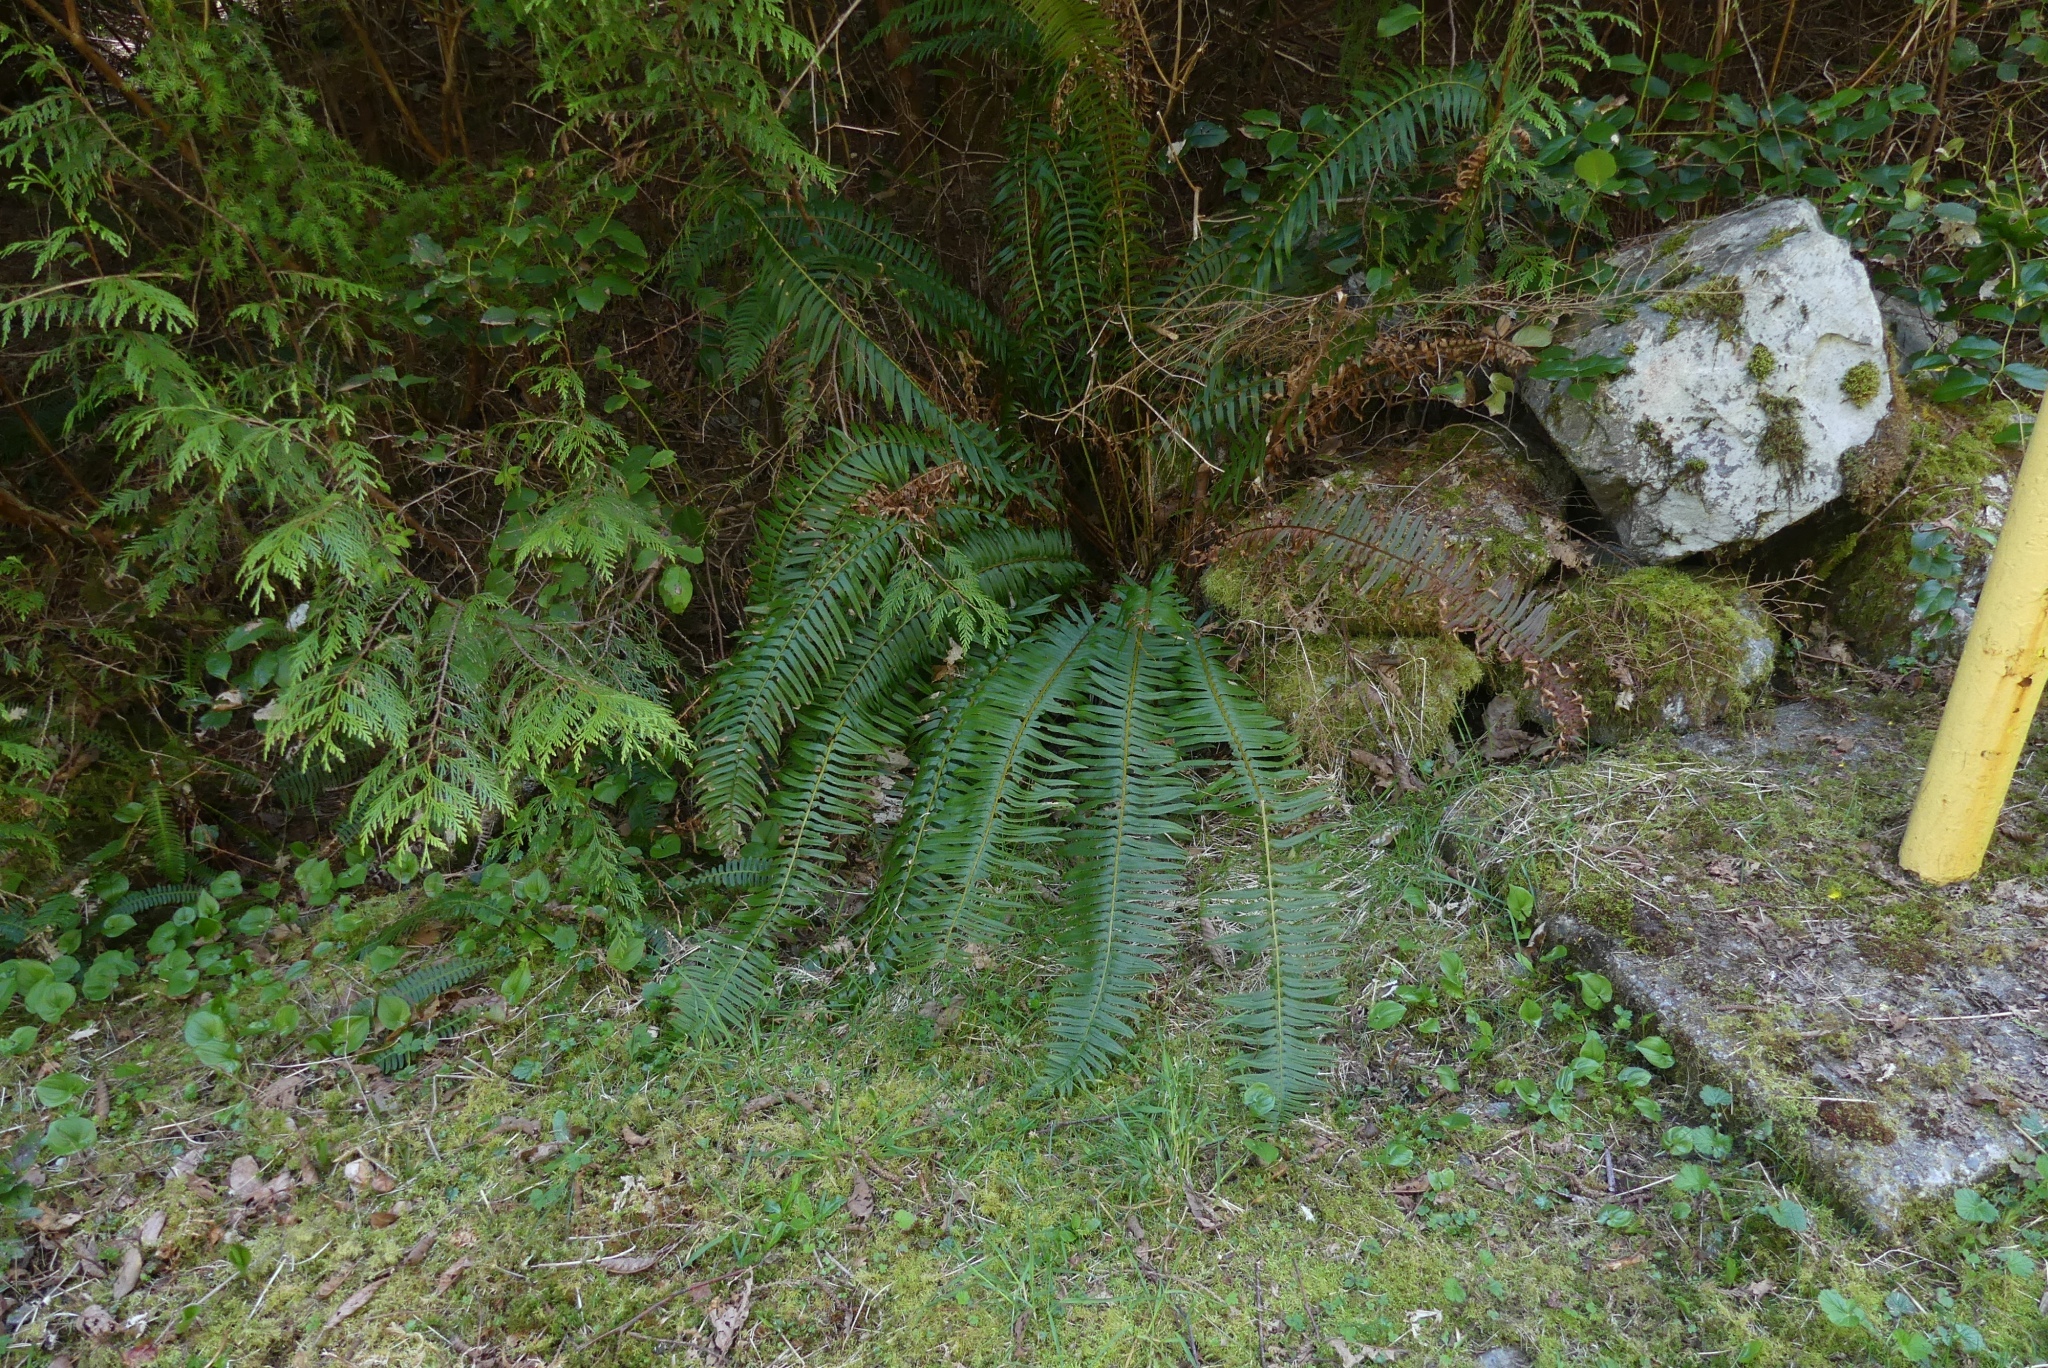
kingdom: Plantae
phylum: Tracheophyta
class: Polypodiopsida
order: Polypodiales
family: Dryopteridaceae
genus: Polystichum
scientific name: Polystichum munitum
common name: Western sword-fern
